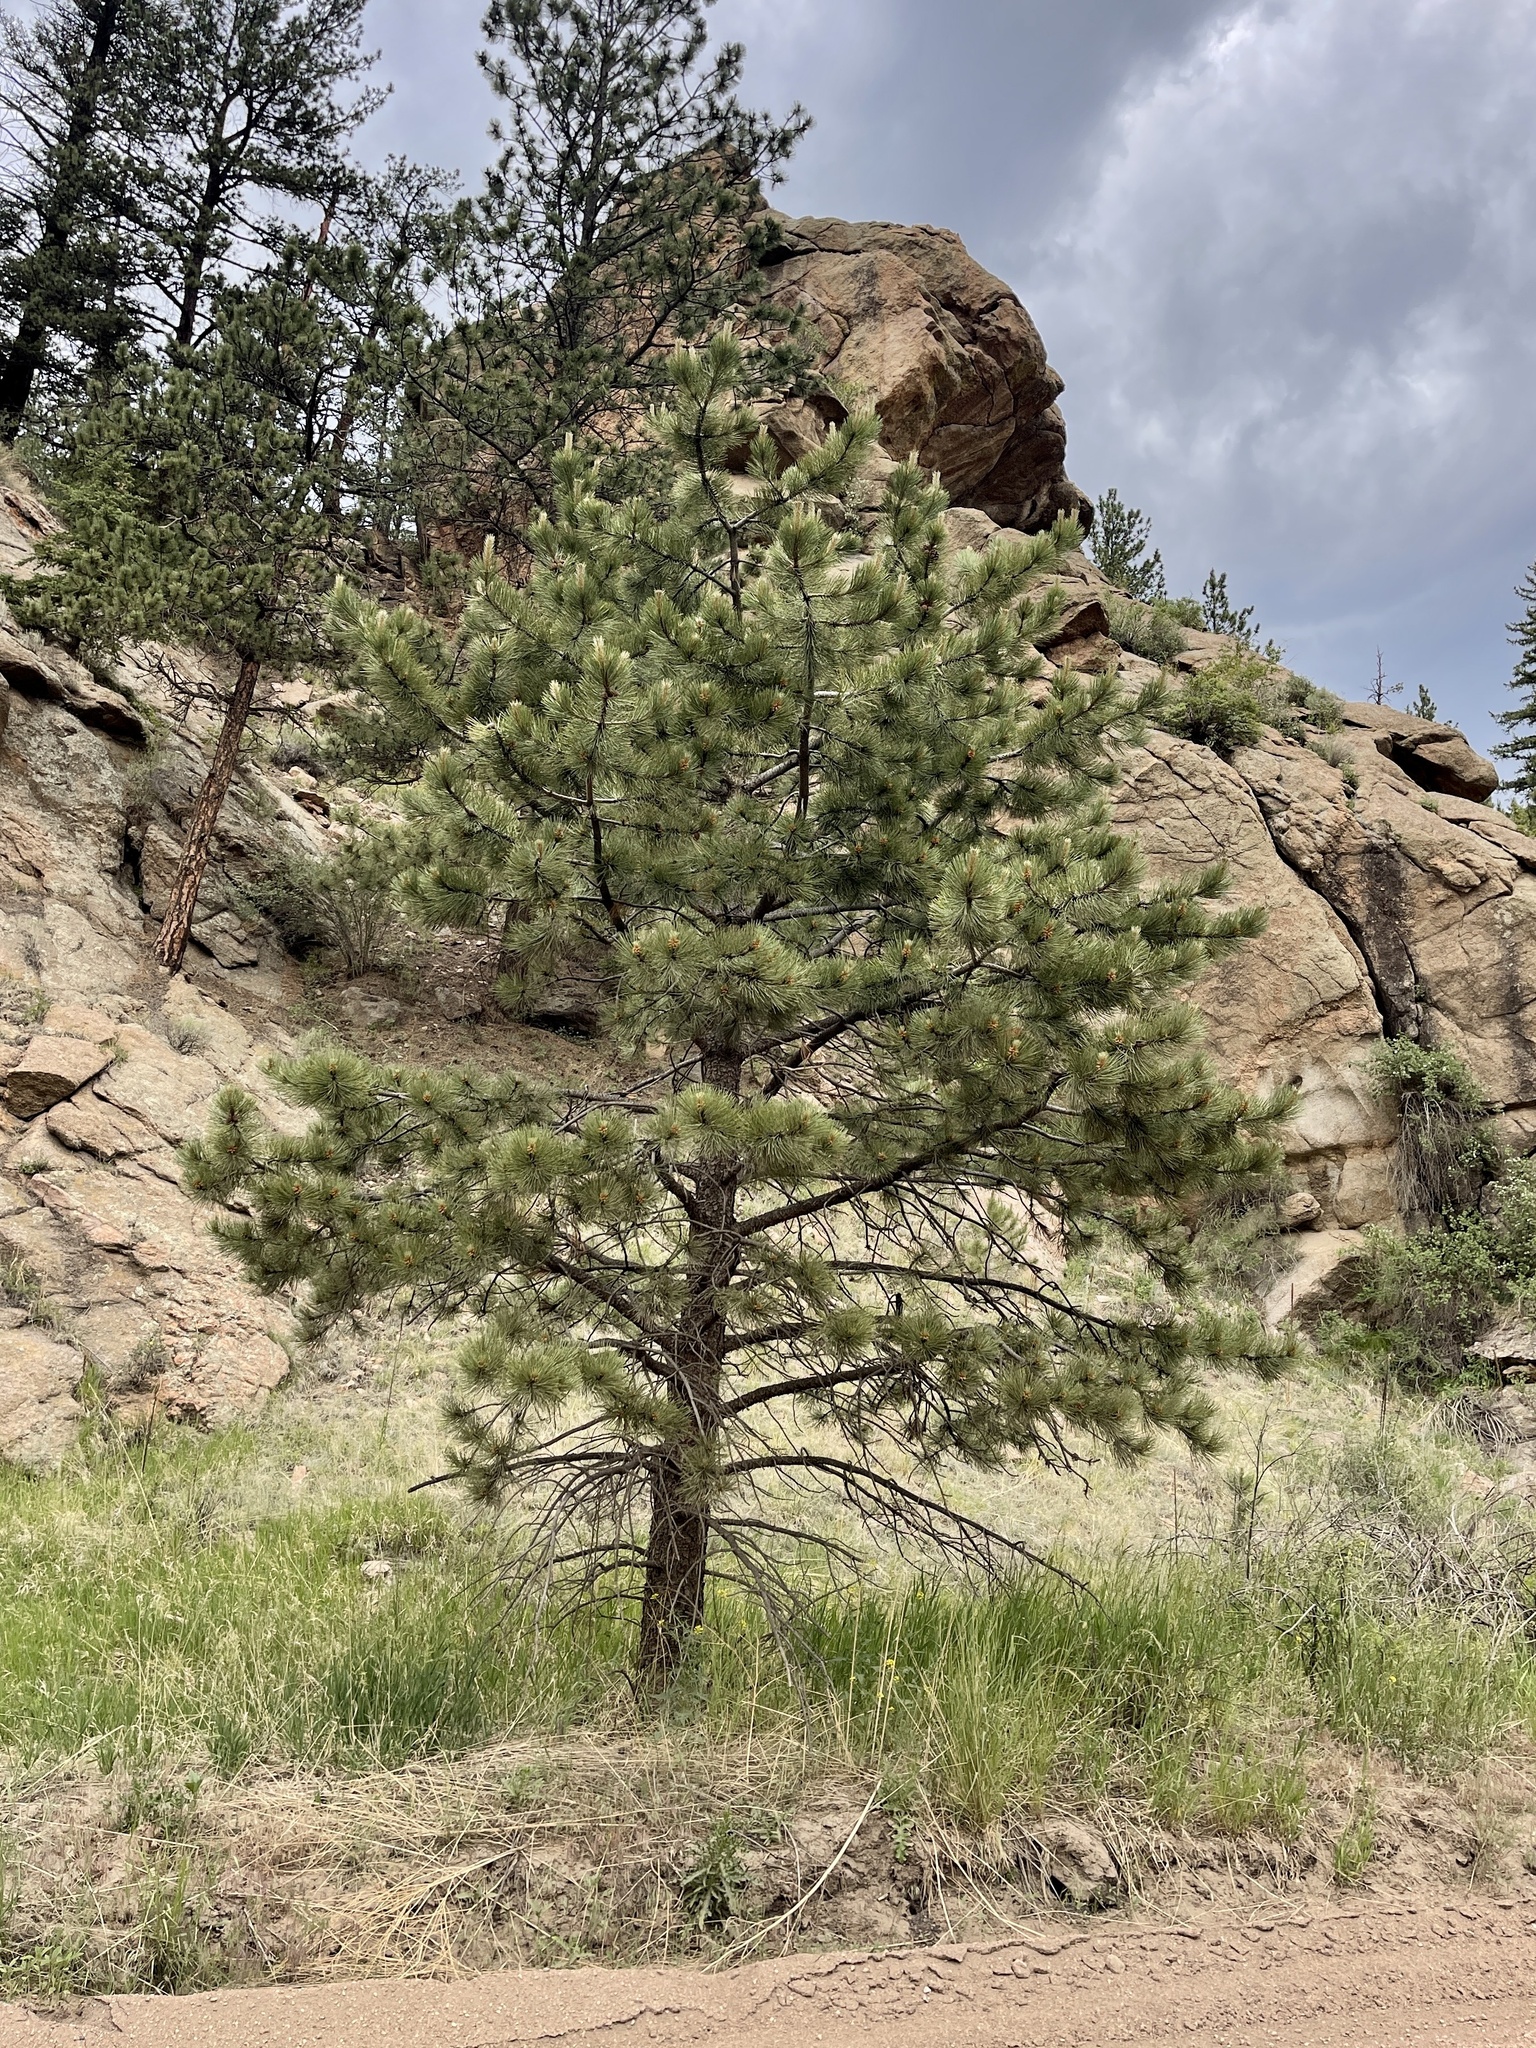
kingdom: Plantae
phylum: Tracheophyta
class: Pinopsida
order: Pinales
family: Pinaceae
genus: Pinus
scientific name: Pinus ponderosa
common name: Western yellow-pine
